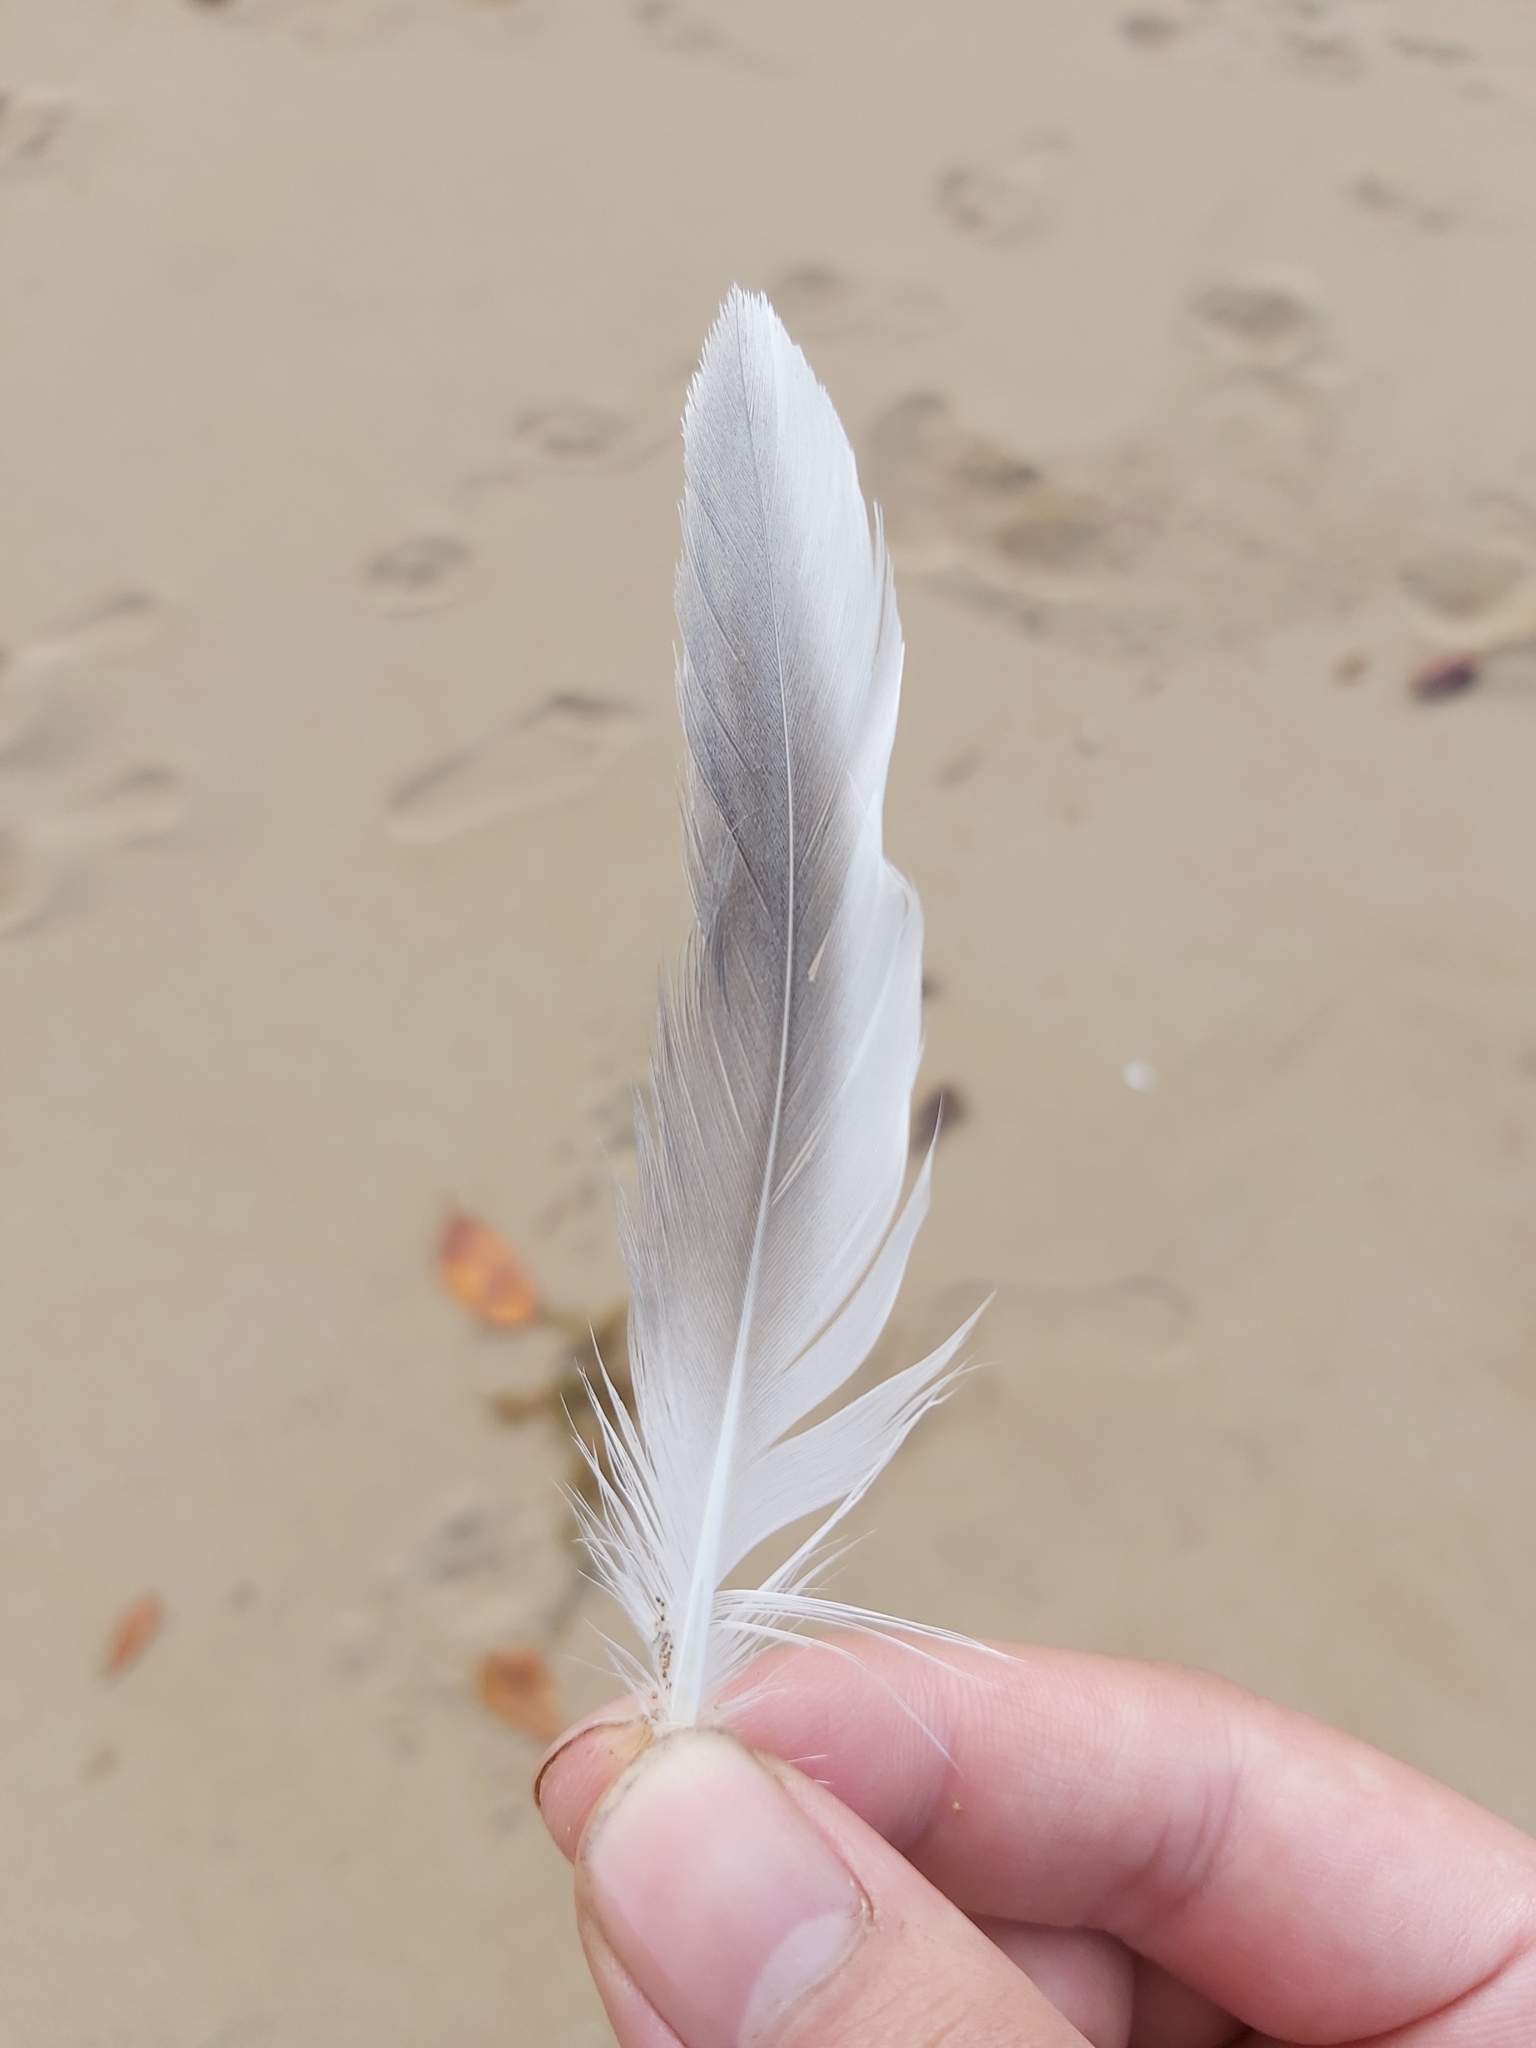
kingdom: Animalia
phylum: Chordata
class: Aves
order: Charadriiformes
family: Laridae
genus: Thalasseus
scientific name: Thalasseus bergii
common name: Greater crested tern
